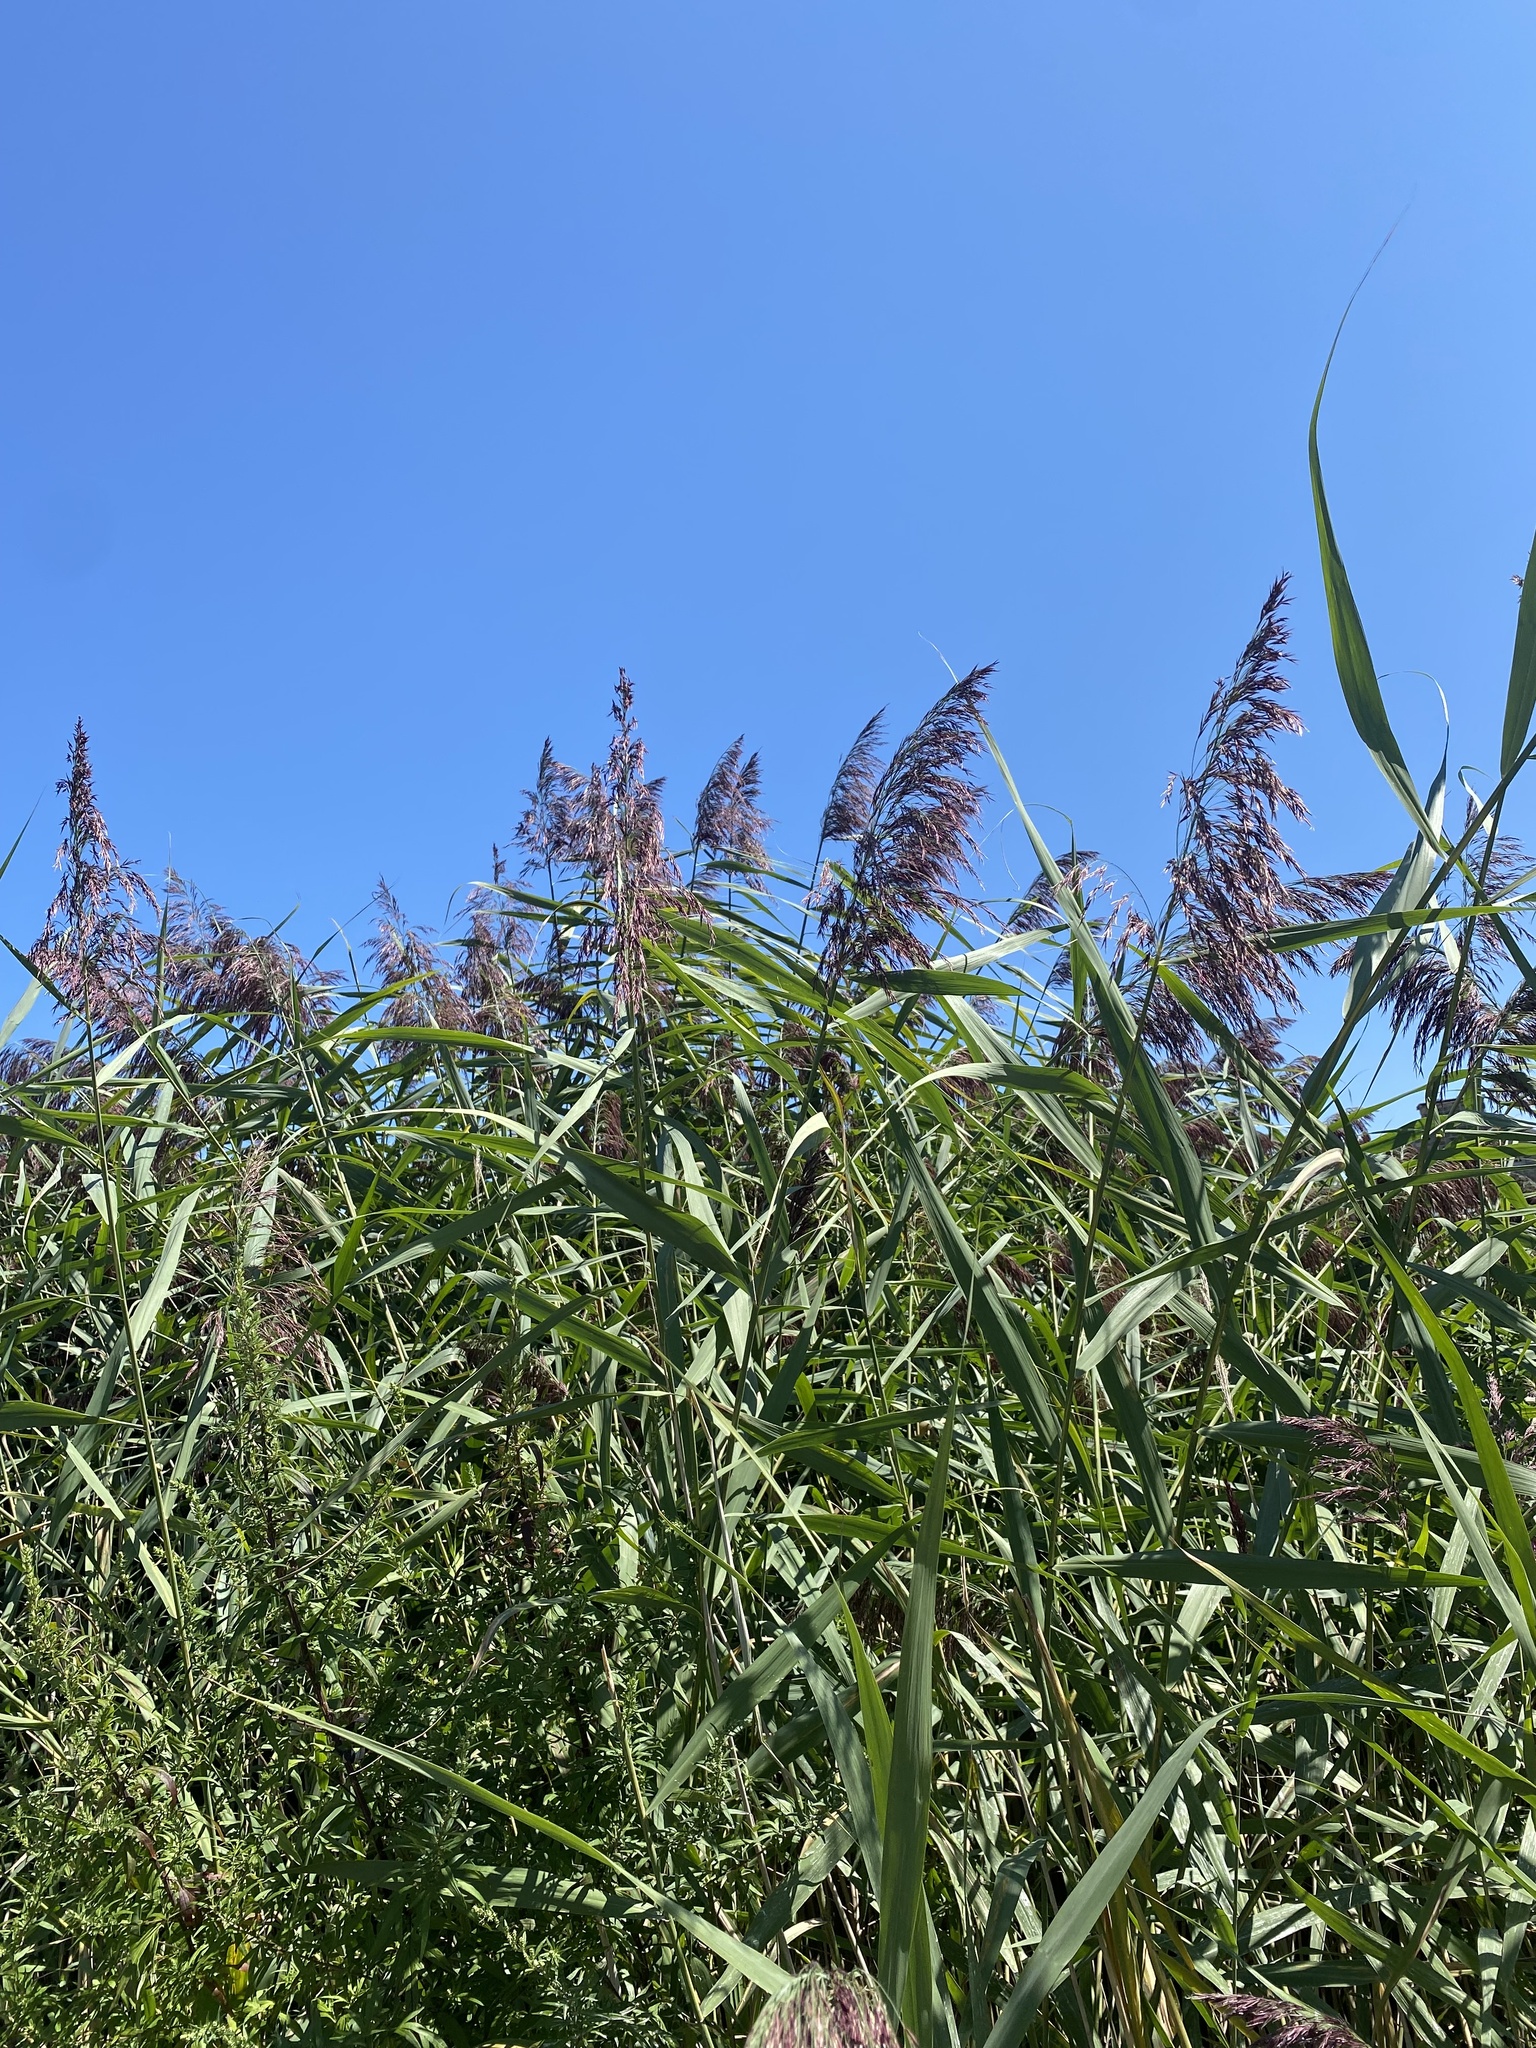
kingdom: Plantae
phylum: Tracheophyta
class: Liliopsida
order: Poales
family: Poaceae
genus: Phragmites
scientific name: Phragmites australis
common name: Common reed
